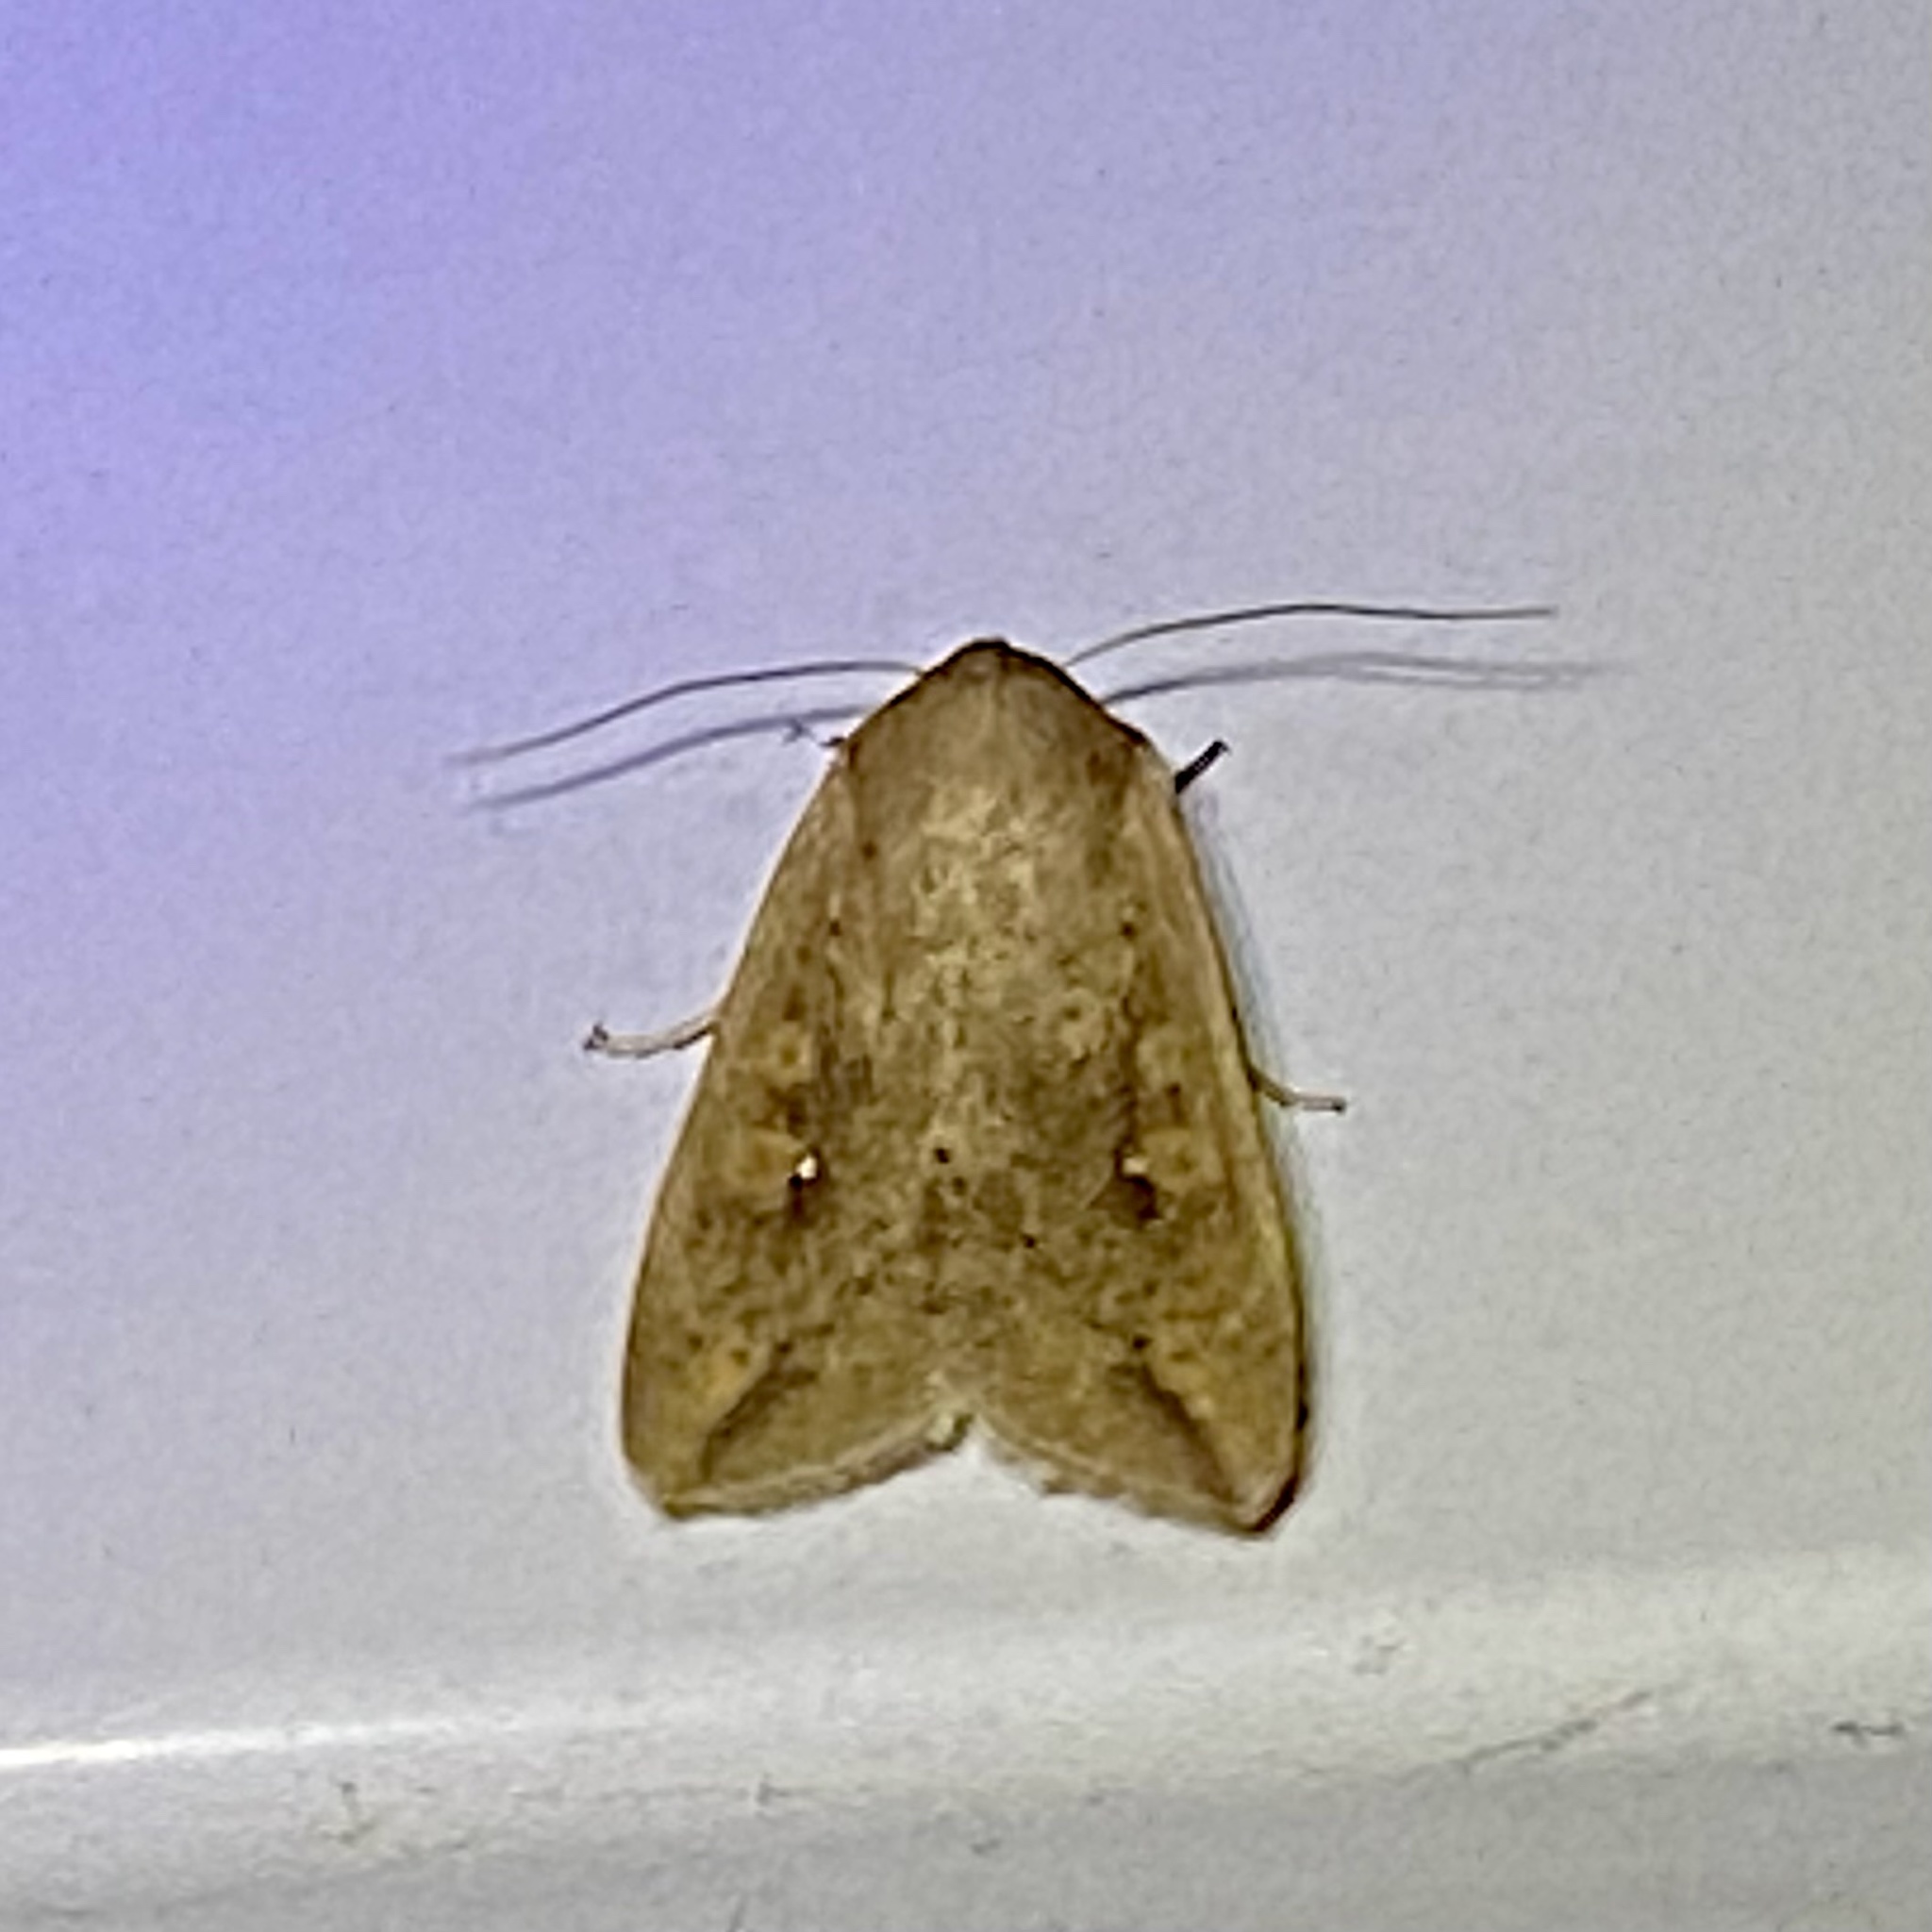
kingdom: Animalia
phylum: Arthropoda
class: Insecta
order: Lepidoptera
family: Noctuidae
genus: Mythimna
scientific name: Mythimna unipuncta
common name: White-speck
